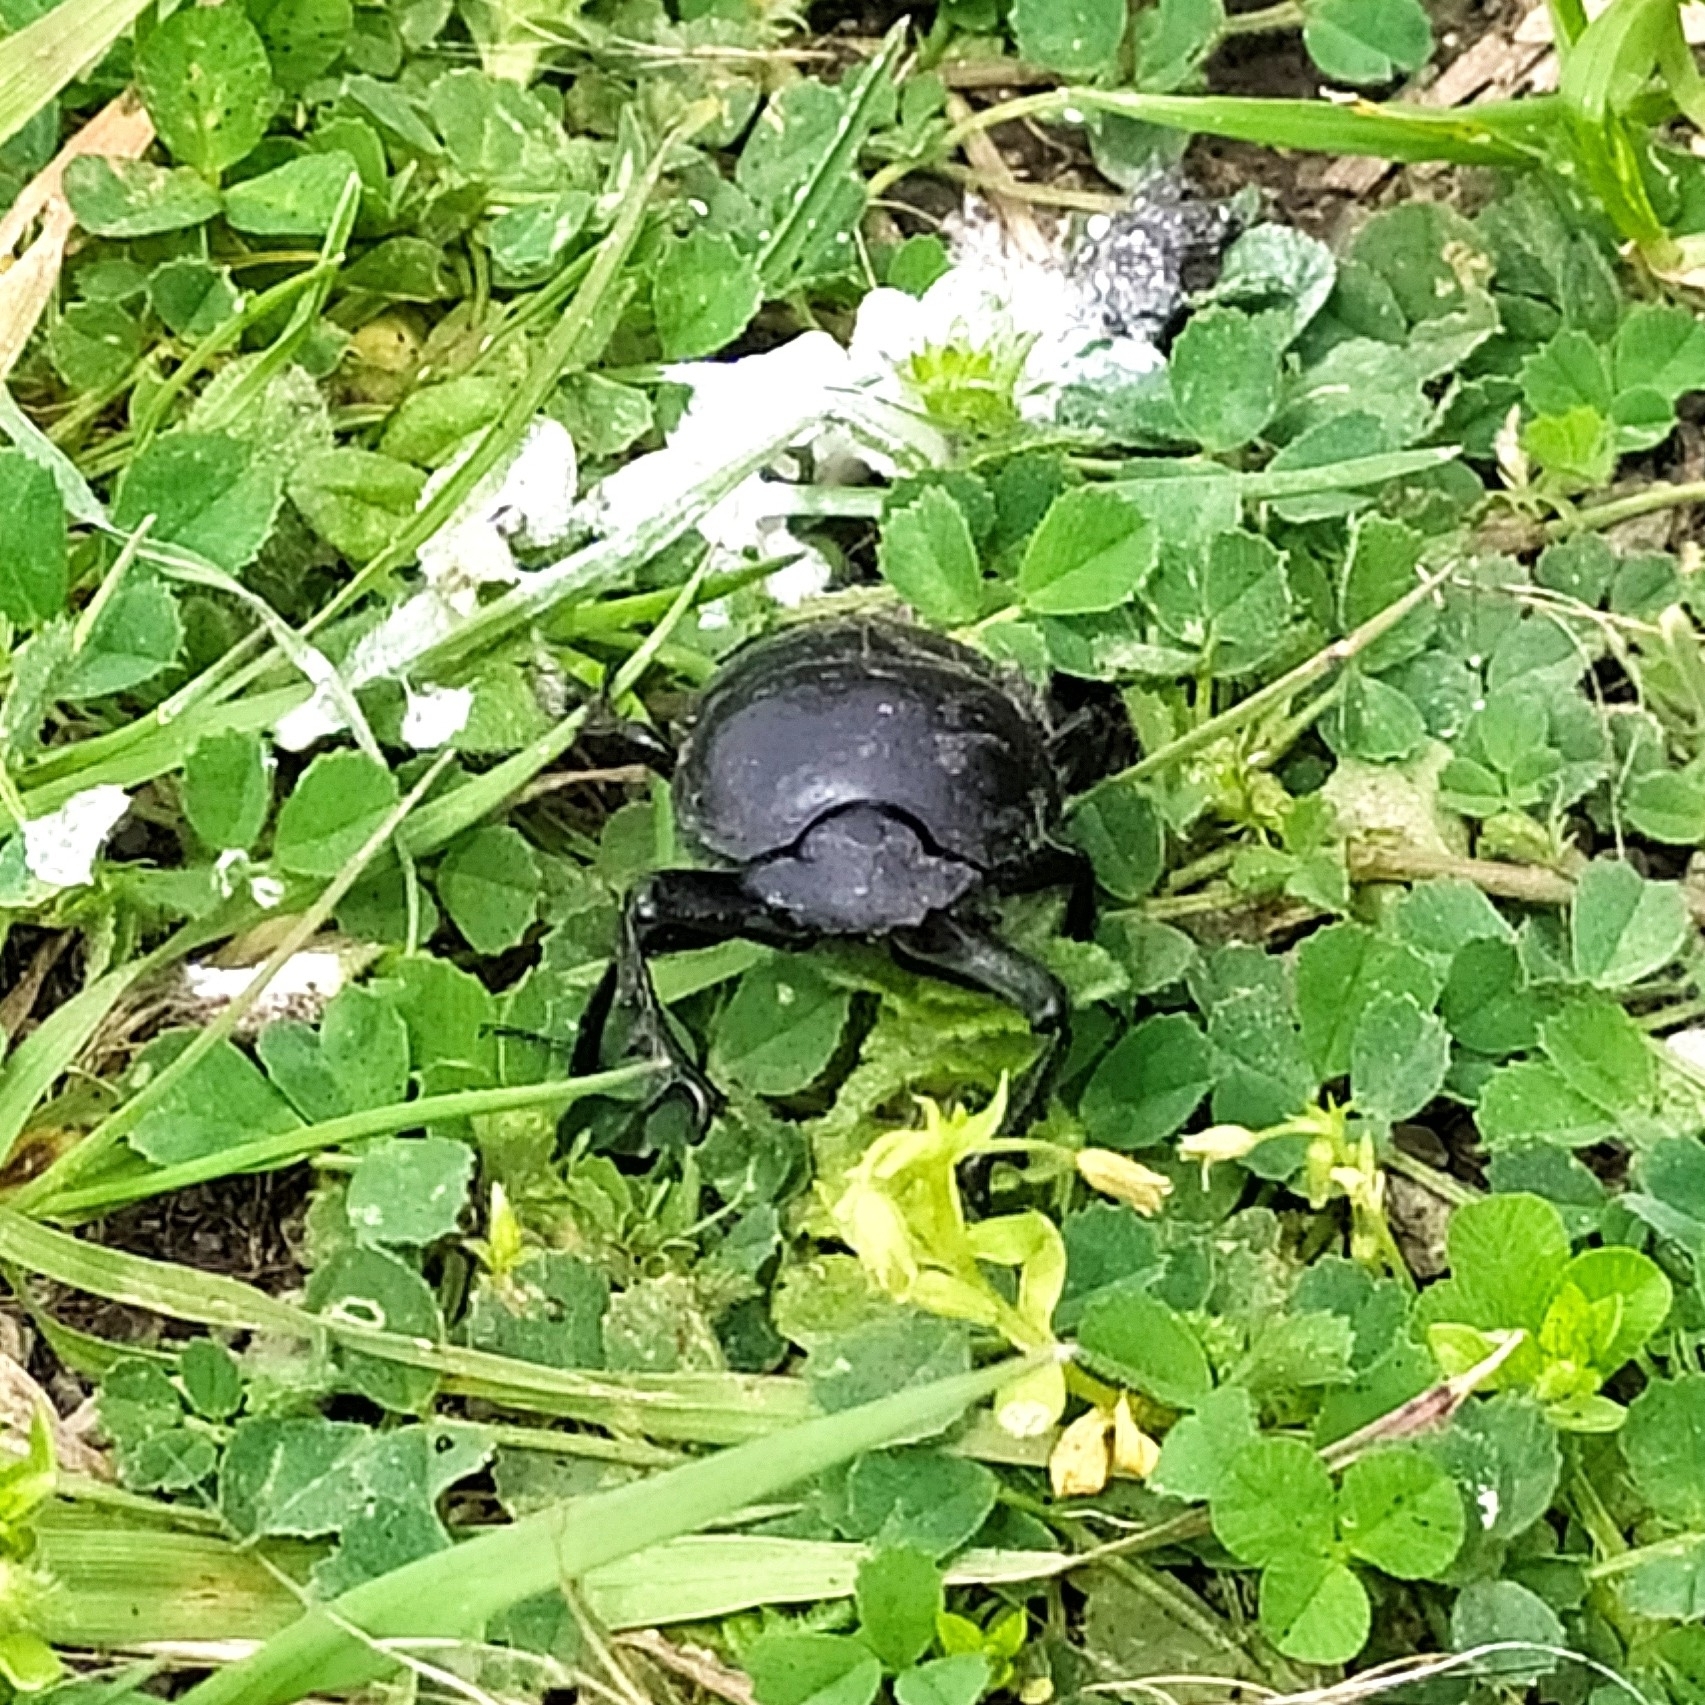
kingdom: Animalia
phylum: Arthropoda
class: Insecta
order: Coleoptera
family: Scarabaeidae
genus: Ateuchetus
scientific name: Ateuchetus
